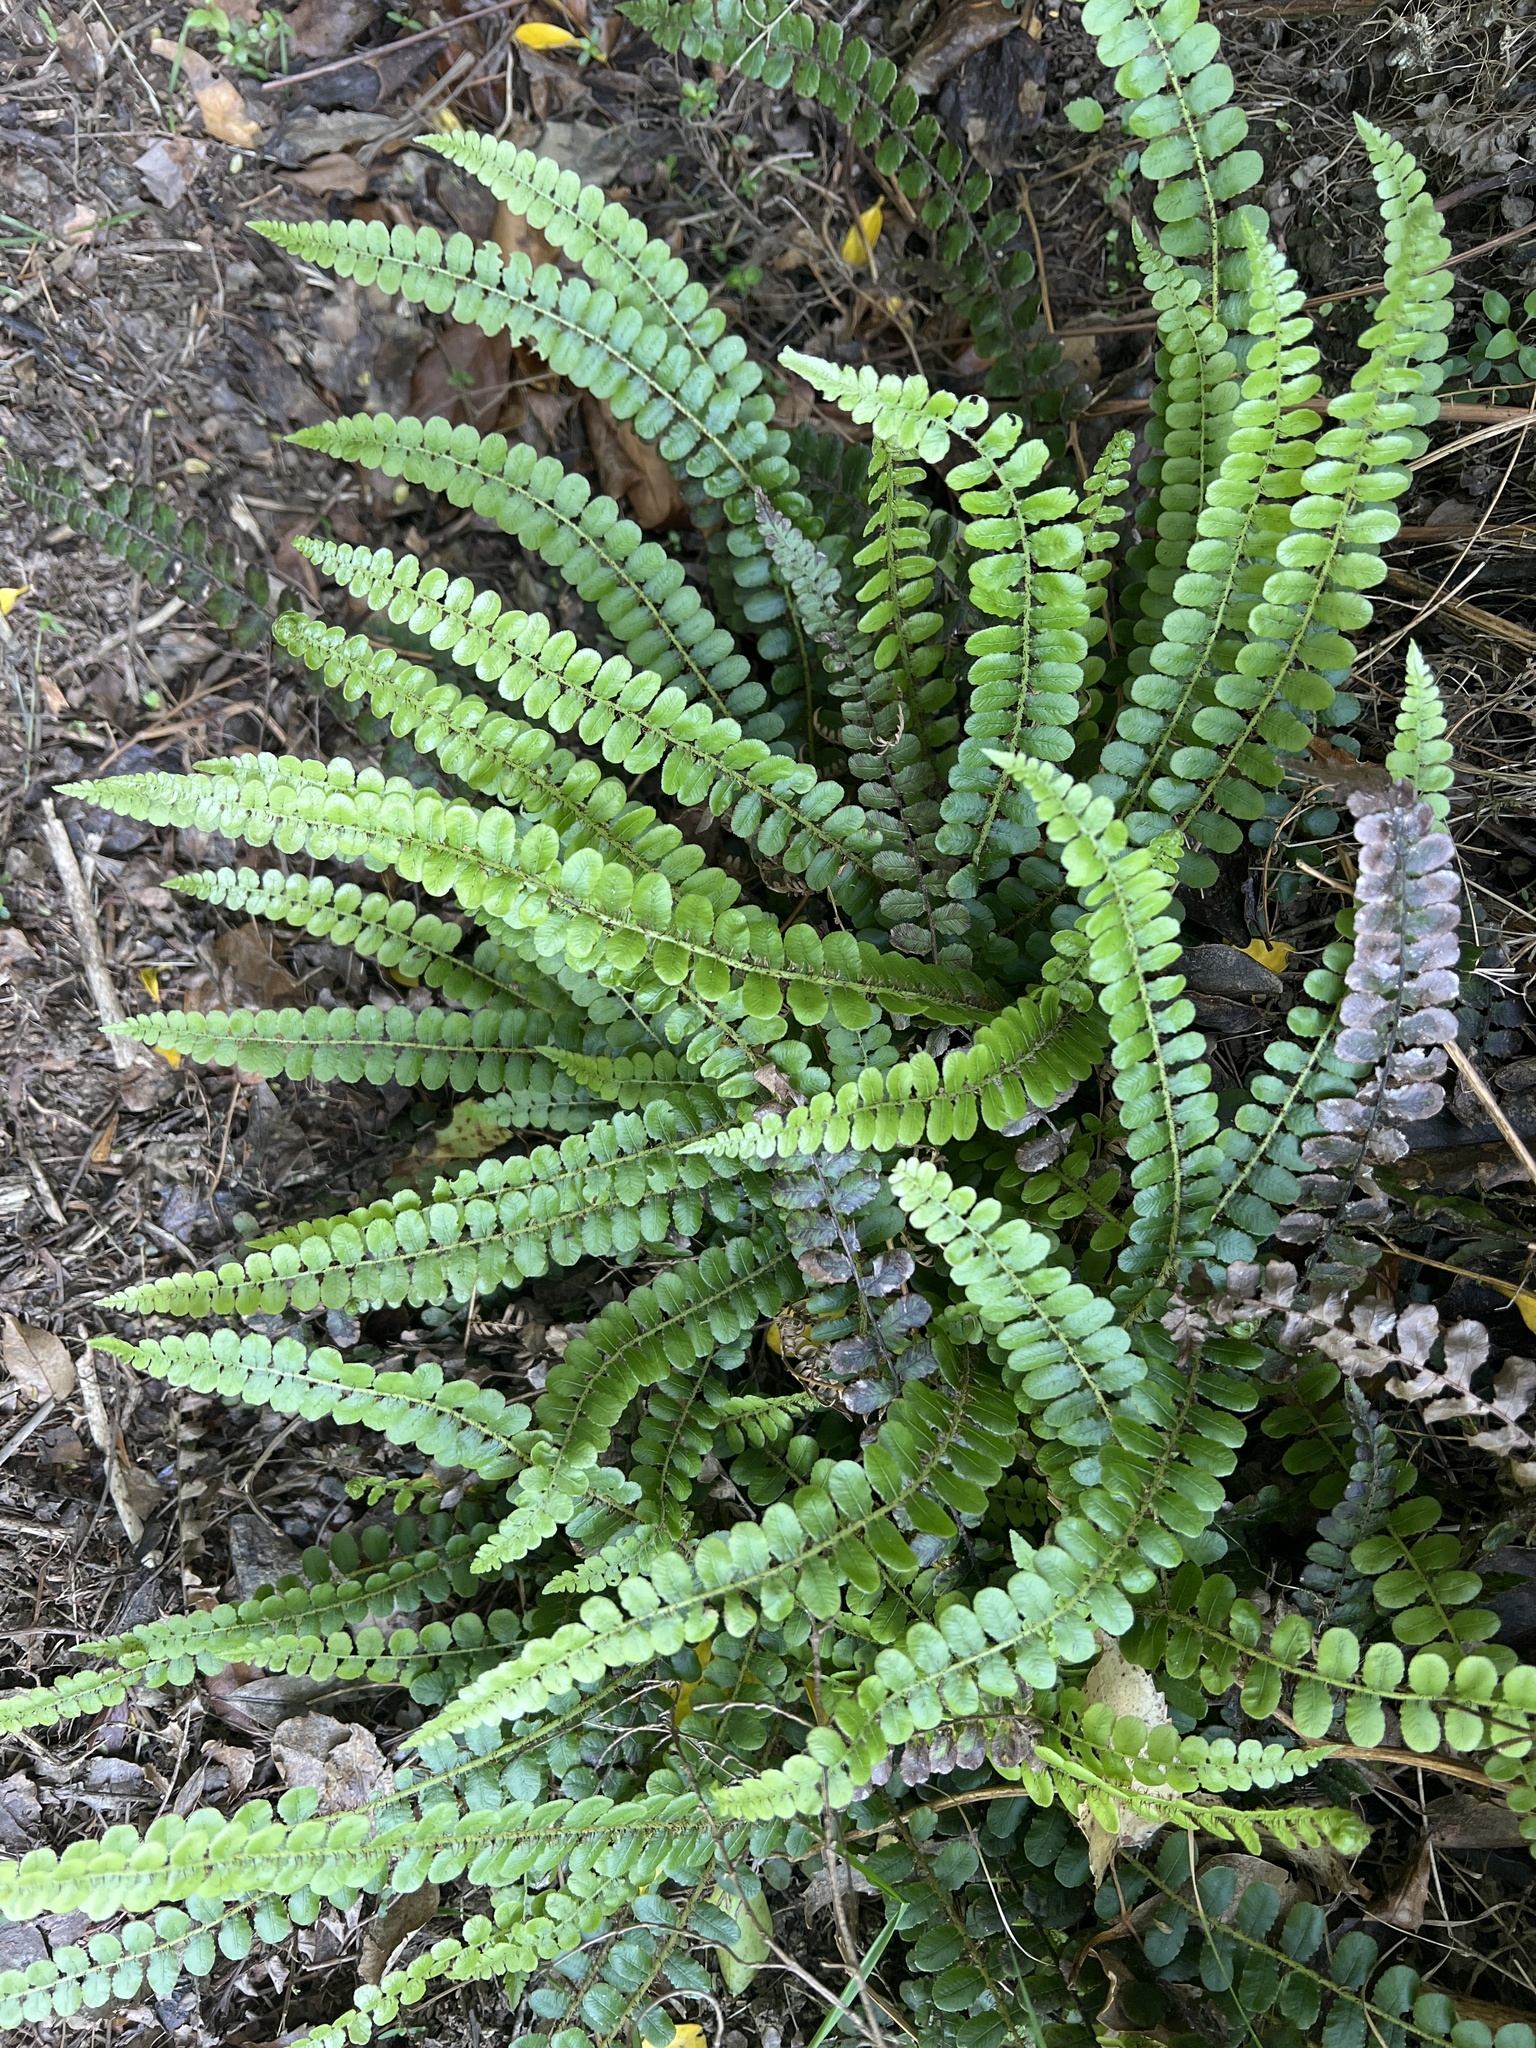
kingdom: Plantae
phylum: Tracheophyta
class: Polypodiopsida
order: Polypodiales
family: Blechnaceae
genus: Cranfillia
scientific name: Cranfillia fluviatilis
